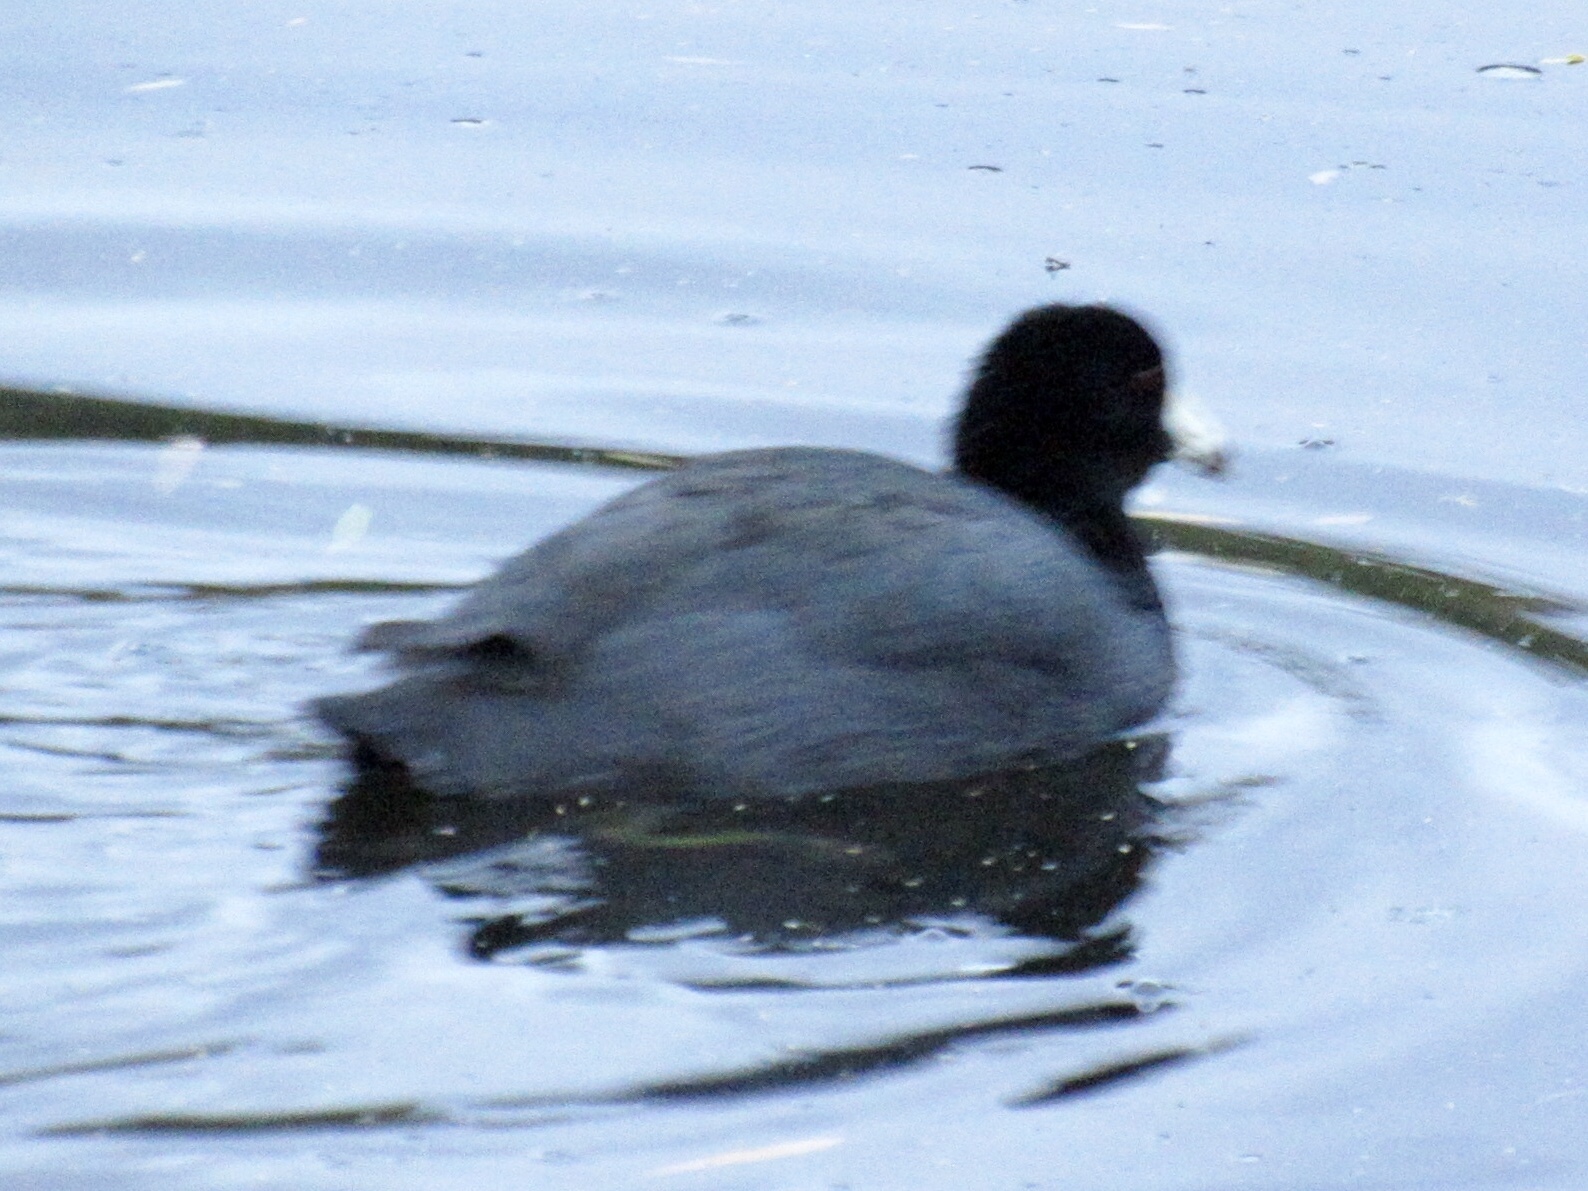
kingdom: Animalia
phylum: Chordata
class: Aves
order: Gruiformes
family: Rallidae
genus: Fulica
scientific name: Fulica americana
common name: American coot
